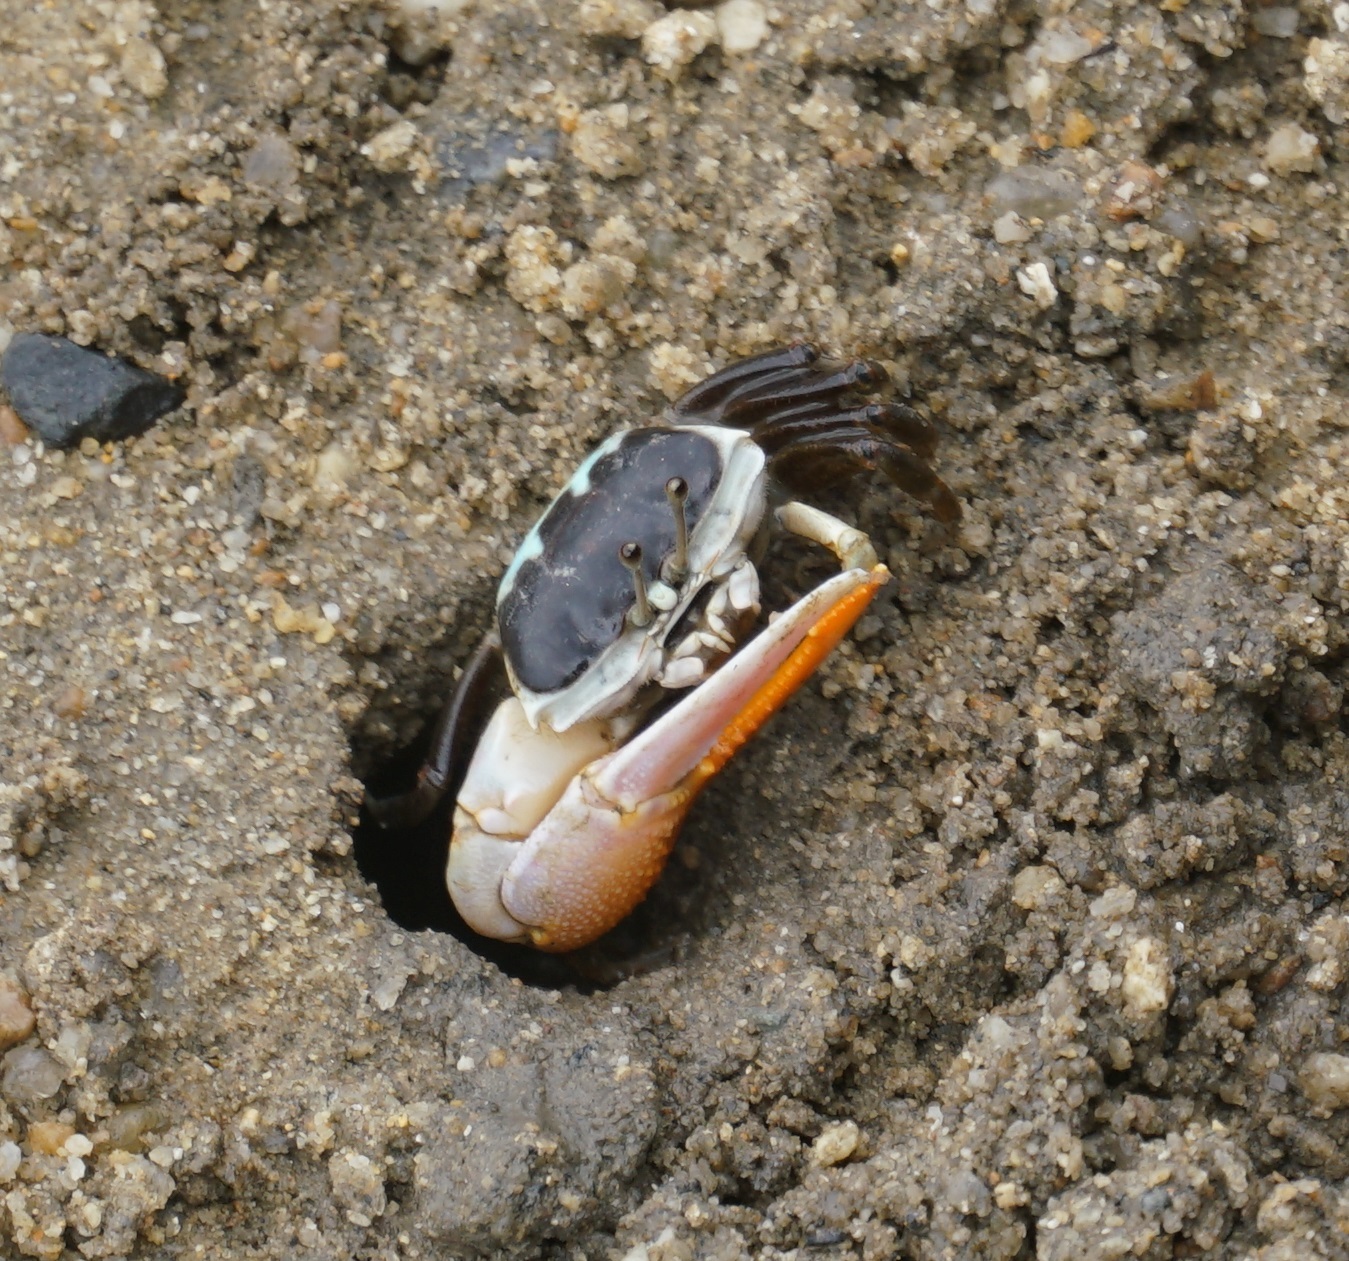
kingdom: Animalia
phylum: Arthropoda
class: Malacostraca
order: Decapoda
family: Ocypodidae
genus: Gelasimus
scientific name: Gelasimus vomeris
